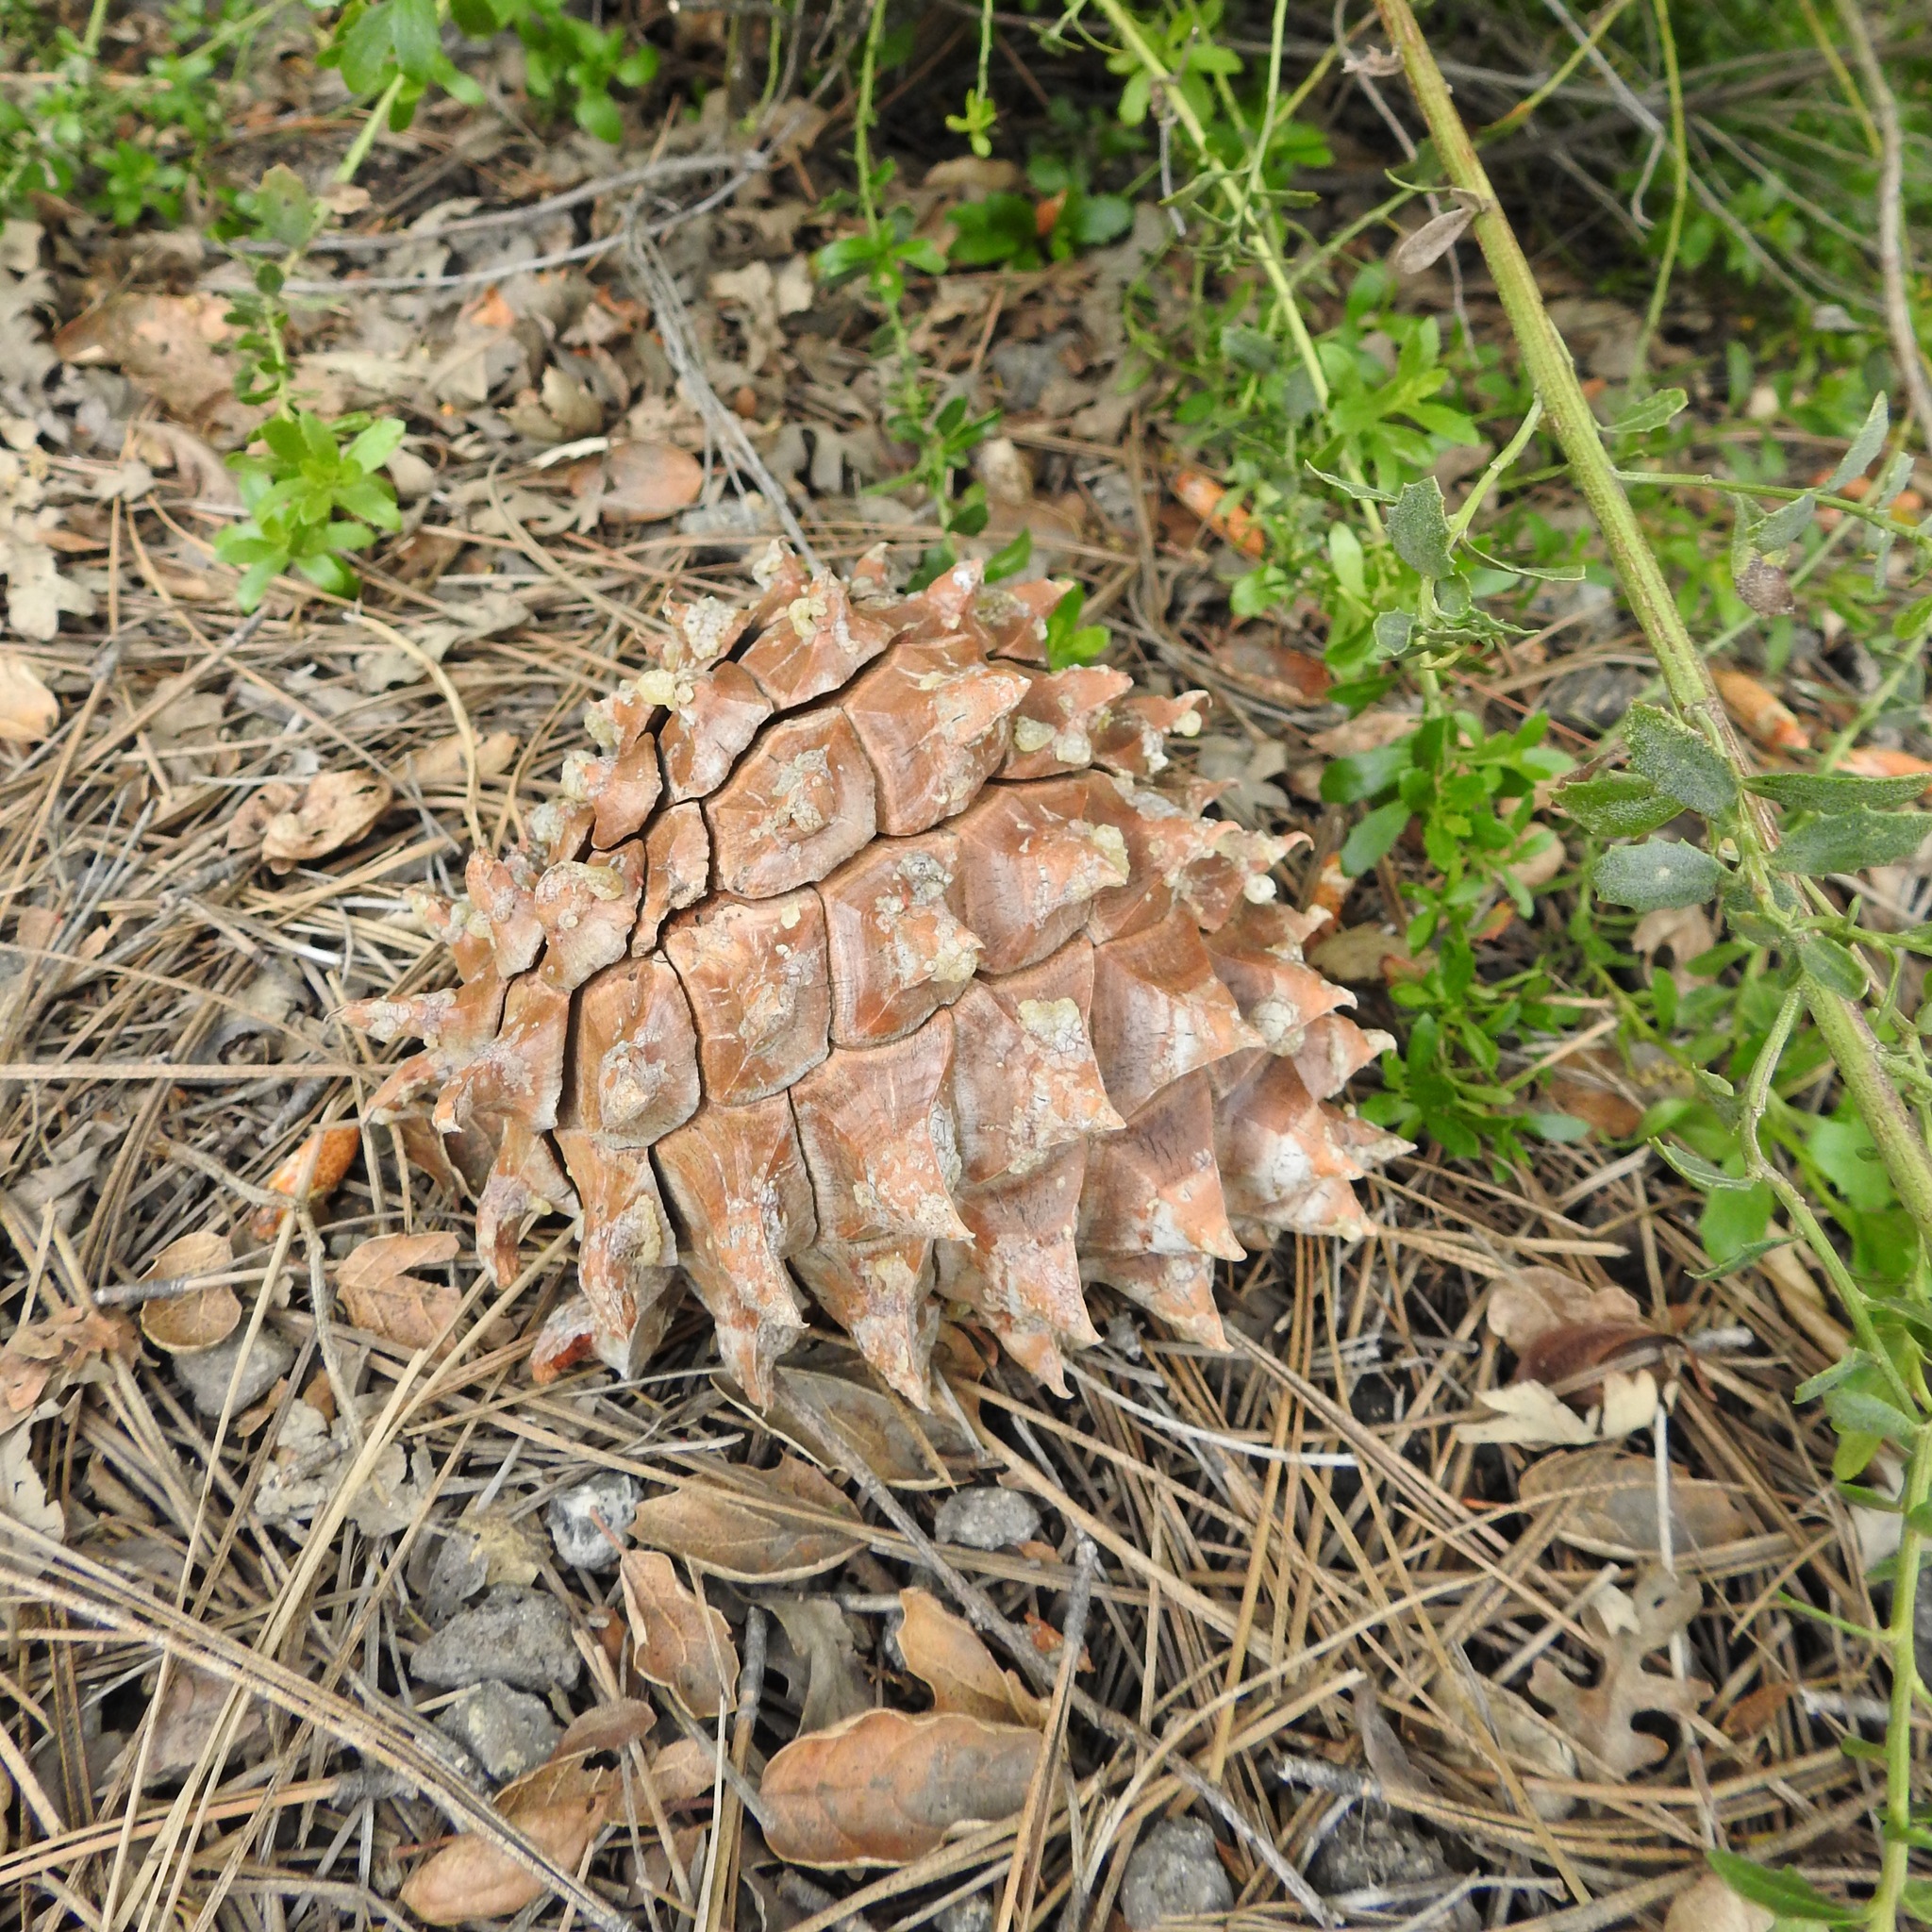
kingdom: Plantae
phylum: Tracheophyta
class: Pinopsida
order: Pinales
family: Pinaceae
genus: Pinus
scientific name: Pinus sabiniana
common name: Bull pine
